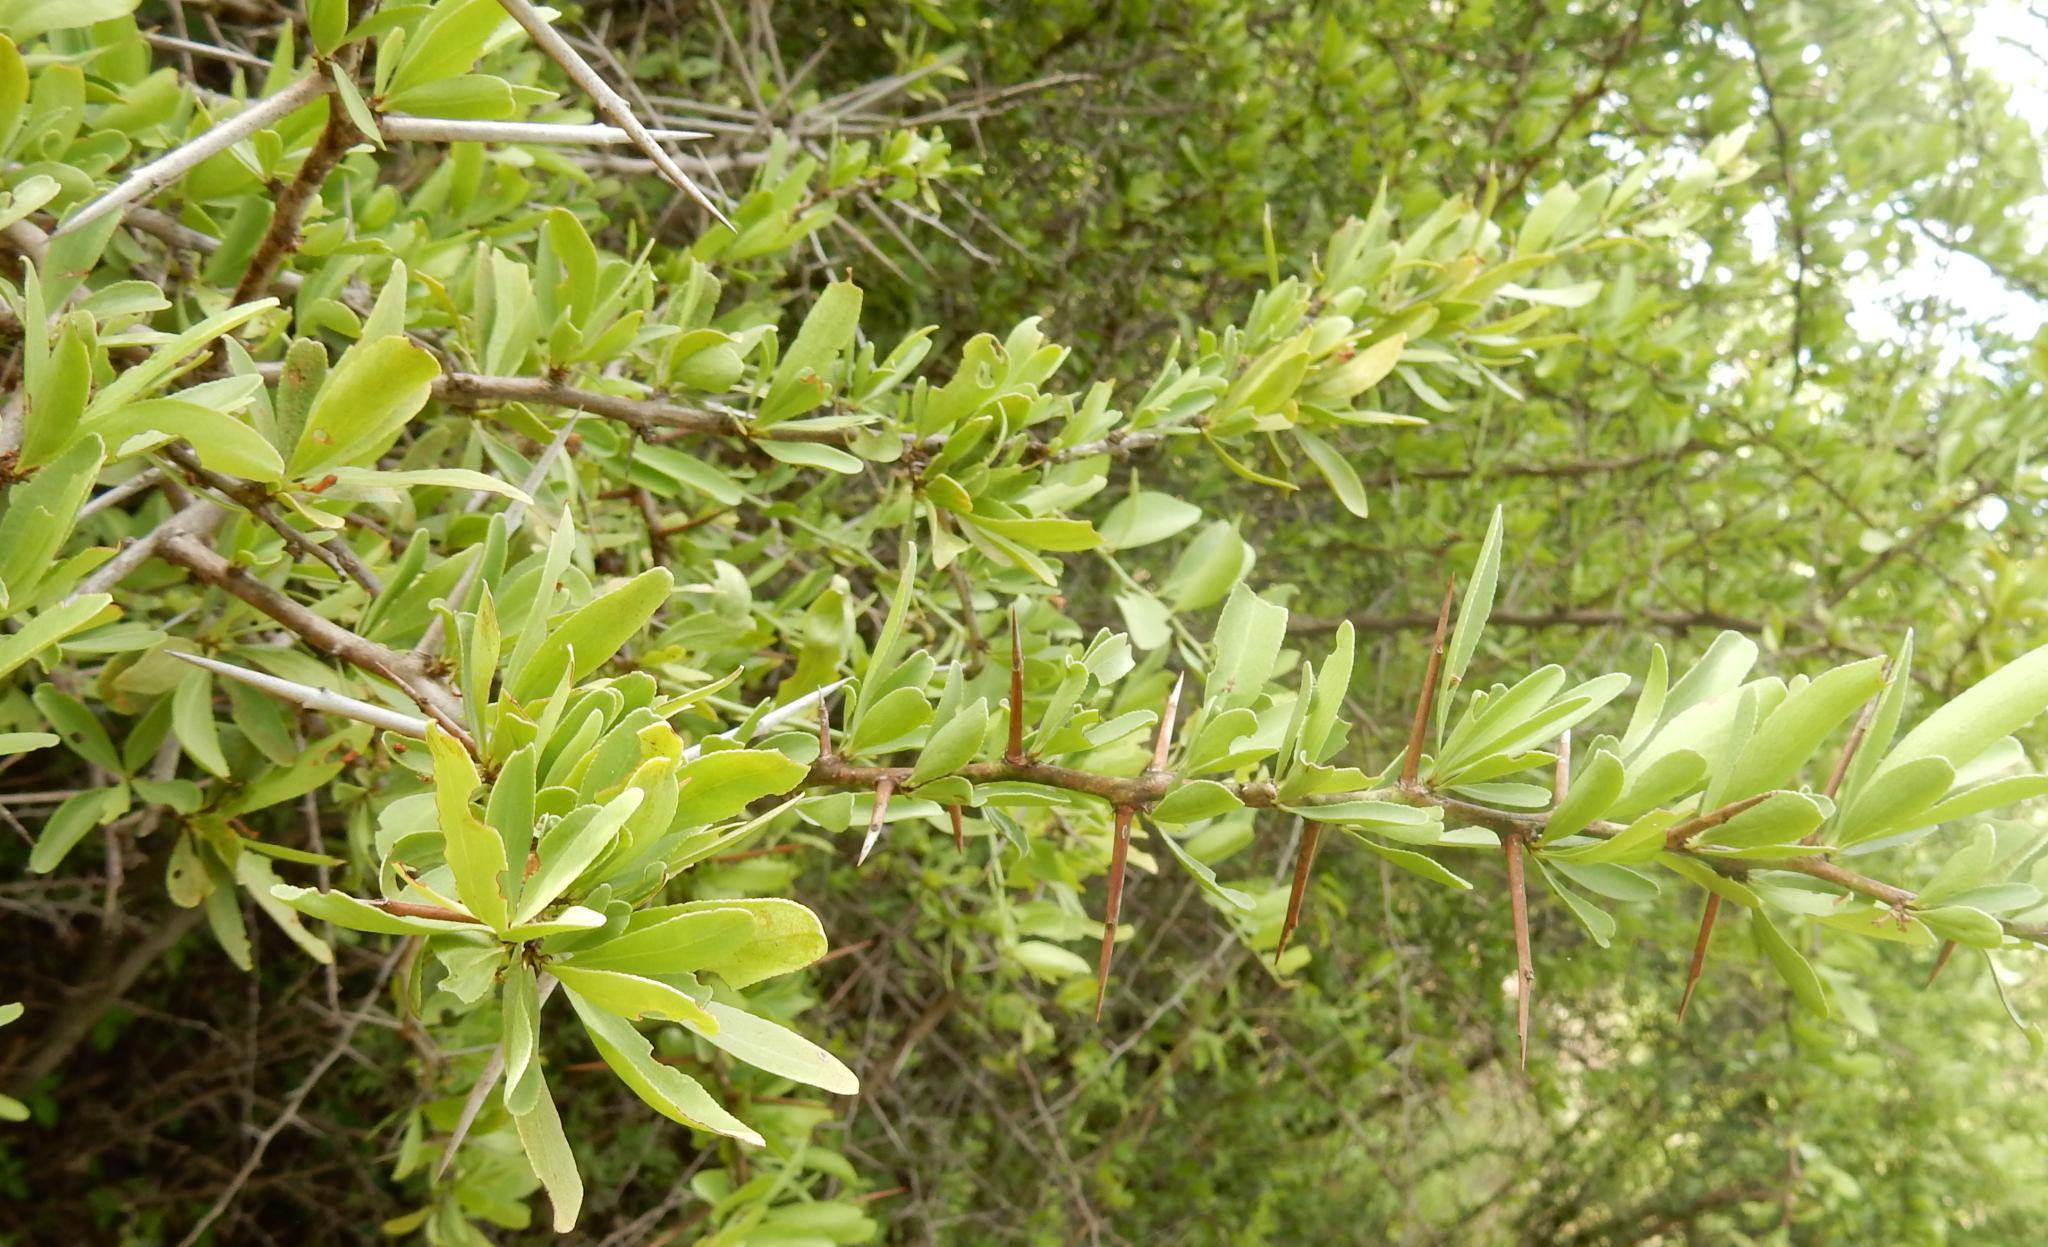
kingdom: Plantae
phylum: Tracheophyta
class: Magnoliopsida
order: Celastrales
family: Celastraceae
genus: Gymnosporia
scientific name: Gymnosporia buxifolia
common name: Common spike-thorn
